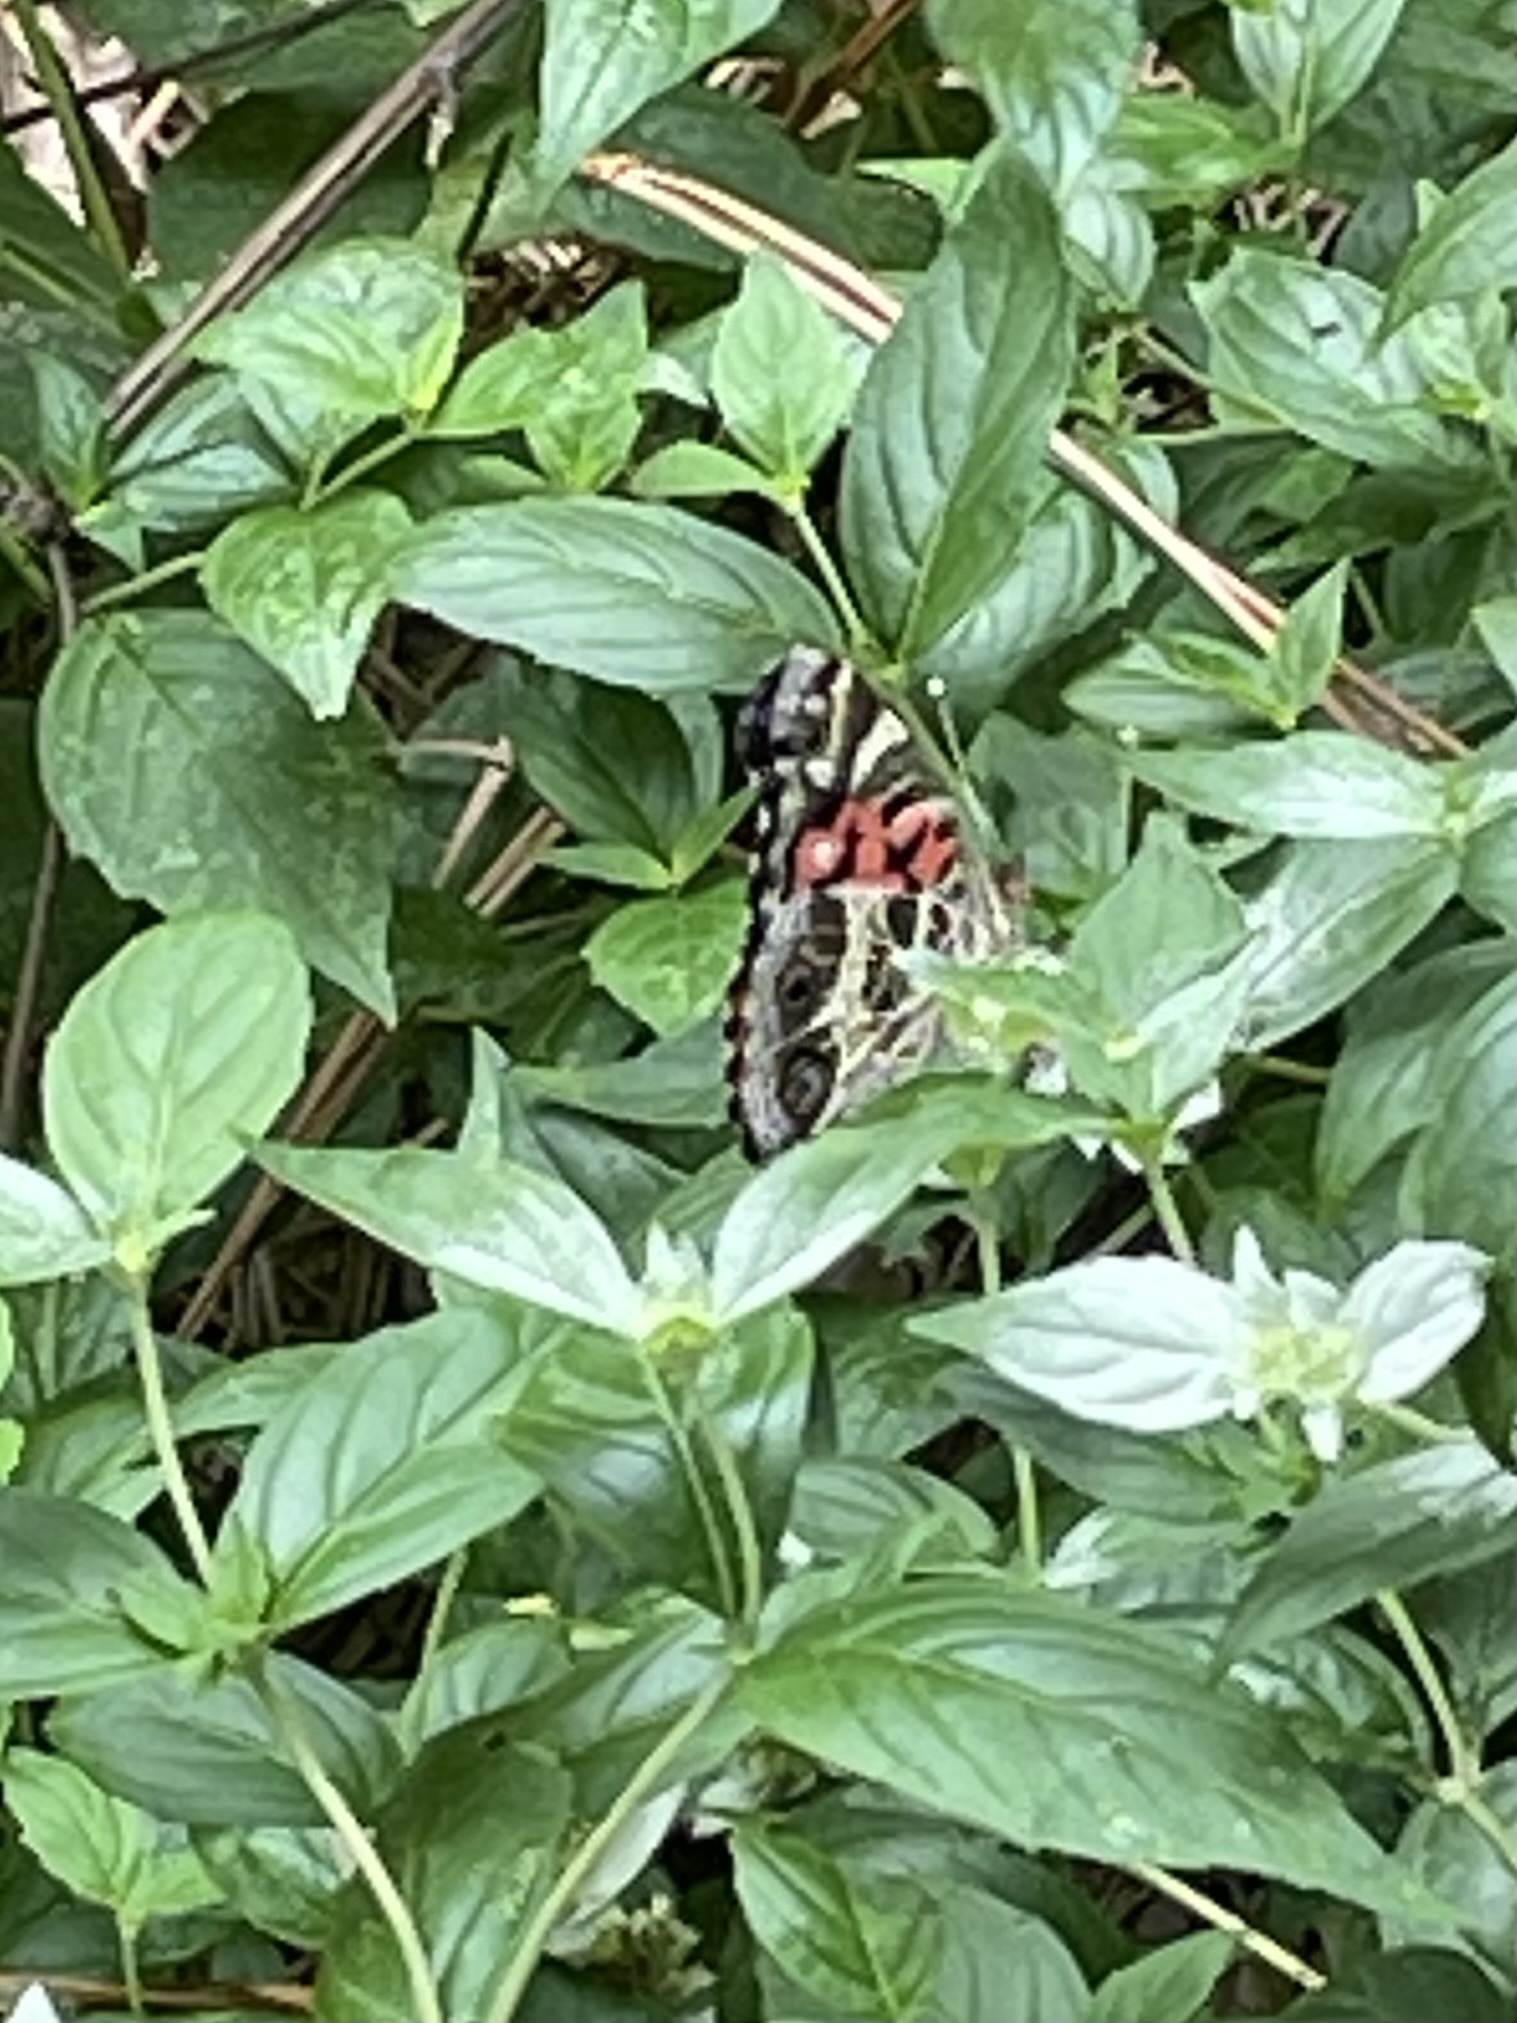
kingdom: Animalia
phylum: Arthropoda
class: Insecta
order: Lepidoptera
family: Nymphalidae
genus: Vanessa
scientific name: Vanessa virginiensis
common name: American lady
